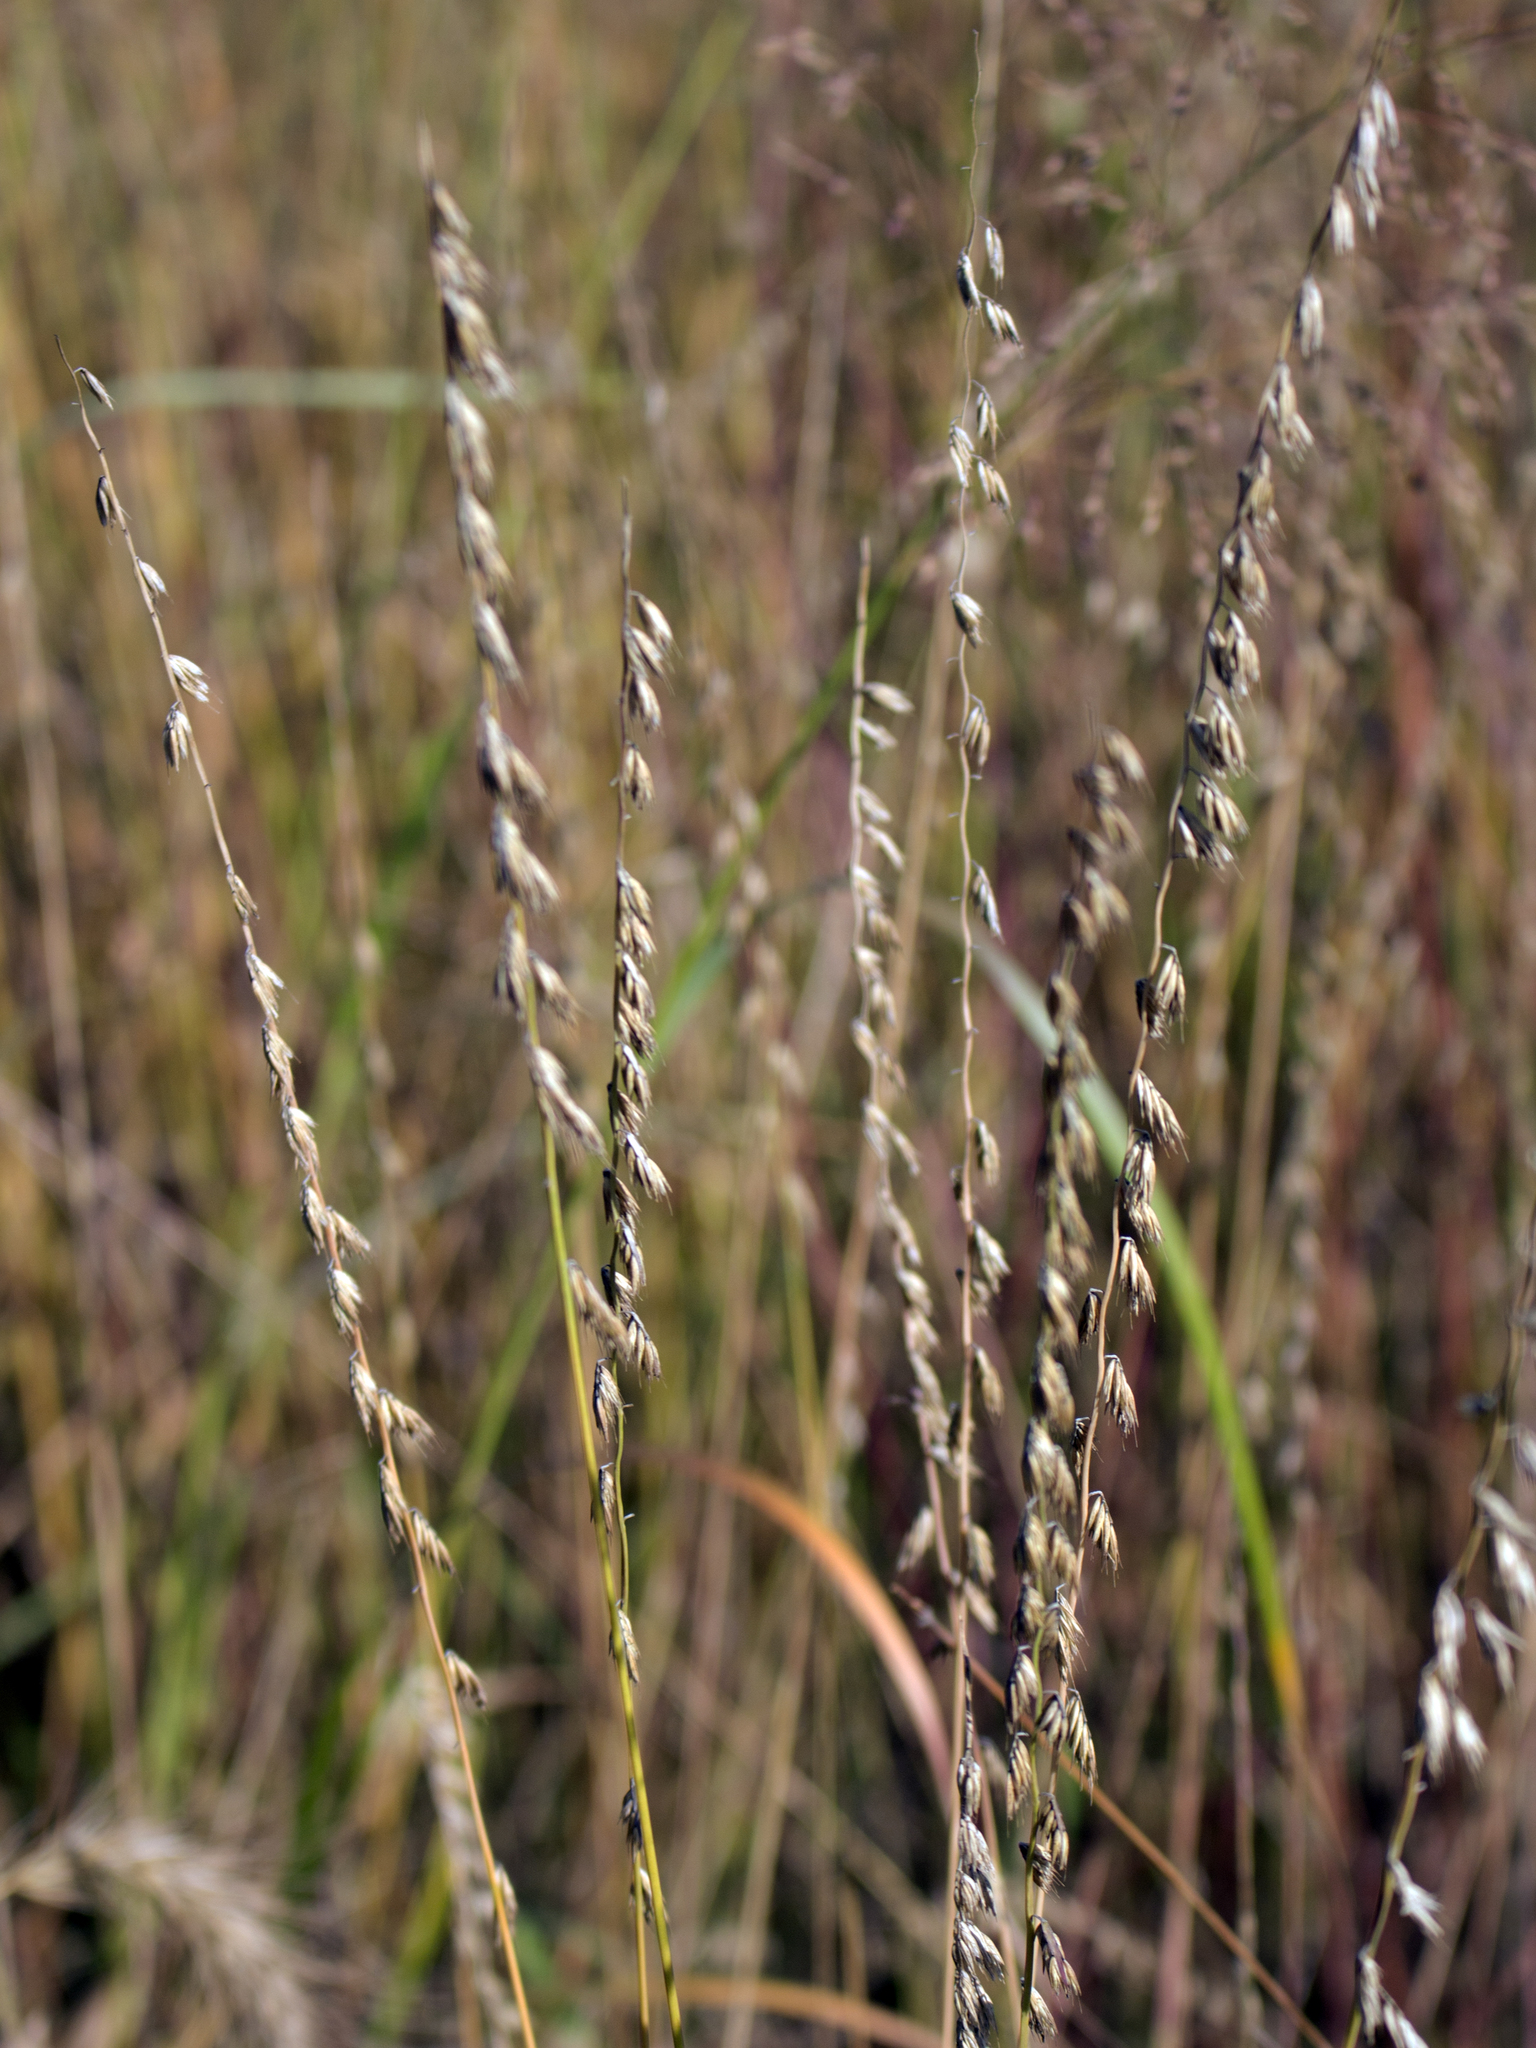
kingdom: Plantae
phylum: Tracheophyta
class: Liliopsida
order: Poales
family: Poaceae
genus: Bouteloua
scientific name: Bouteloua curtipendula
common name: Side-oats grama
